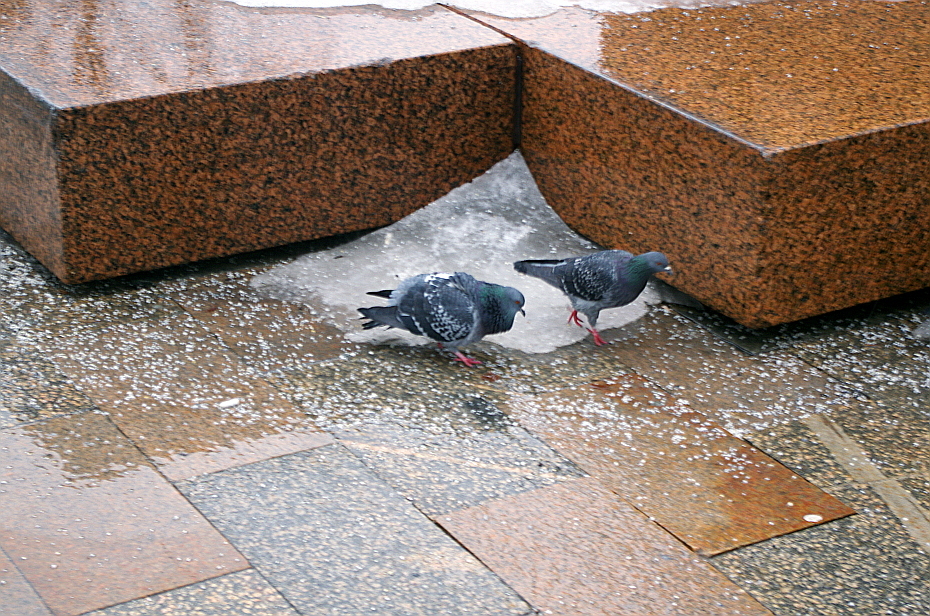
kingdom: Animalia
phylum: Chordata
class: Aves
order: Columbiformes
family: Columbidae
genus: Columba
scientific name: Columba livia
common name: Rock pigeon
